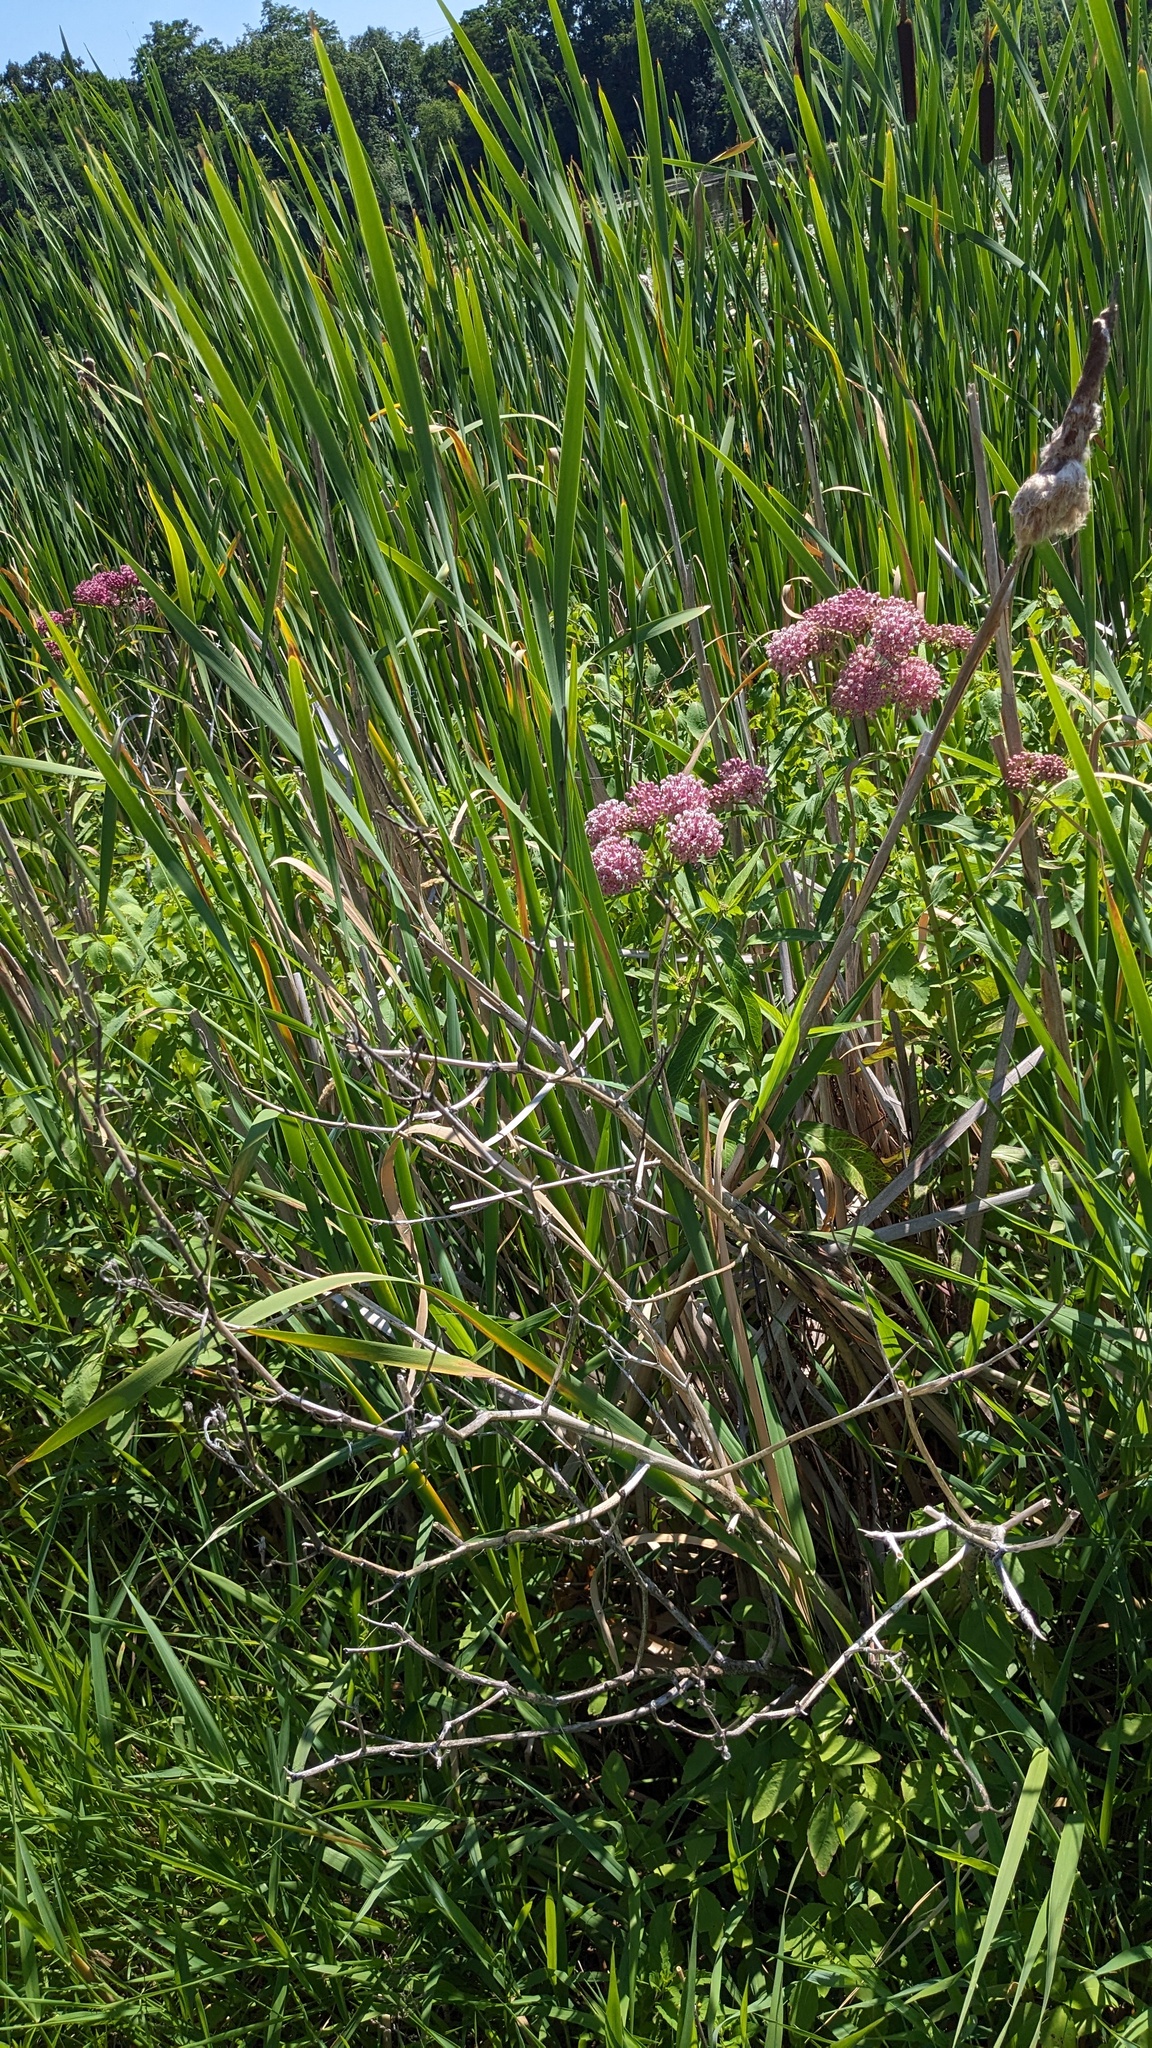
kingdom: Plantae
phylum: Tracheophyta
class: Magnoliopsida
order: Gentianales
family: Apocynaceae
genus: Asclepias
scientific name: Asclepias incarnata
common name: Swamp milkweed
